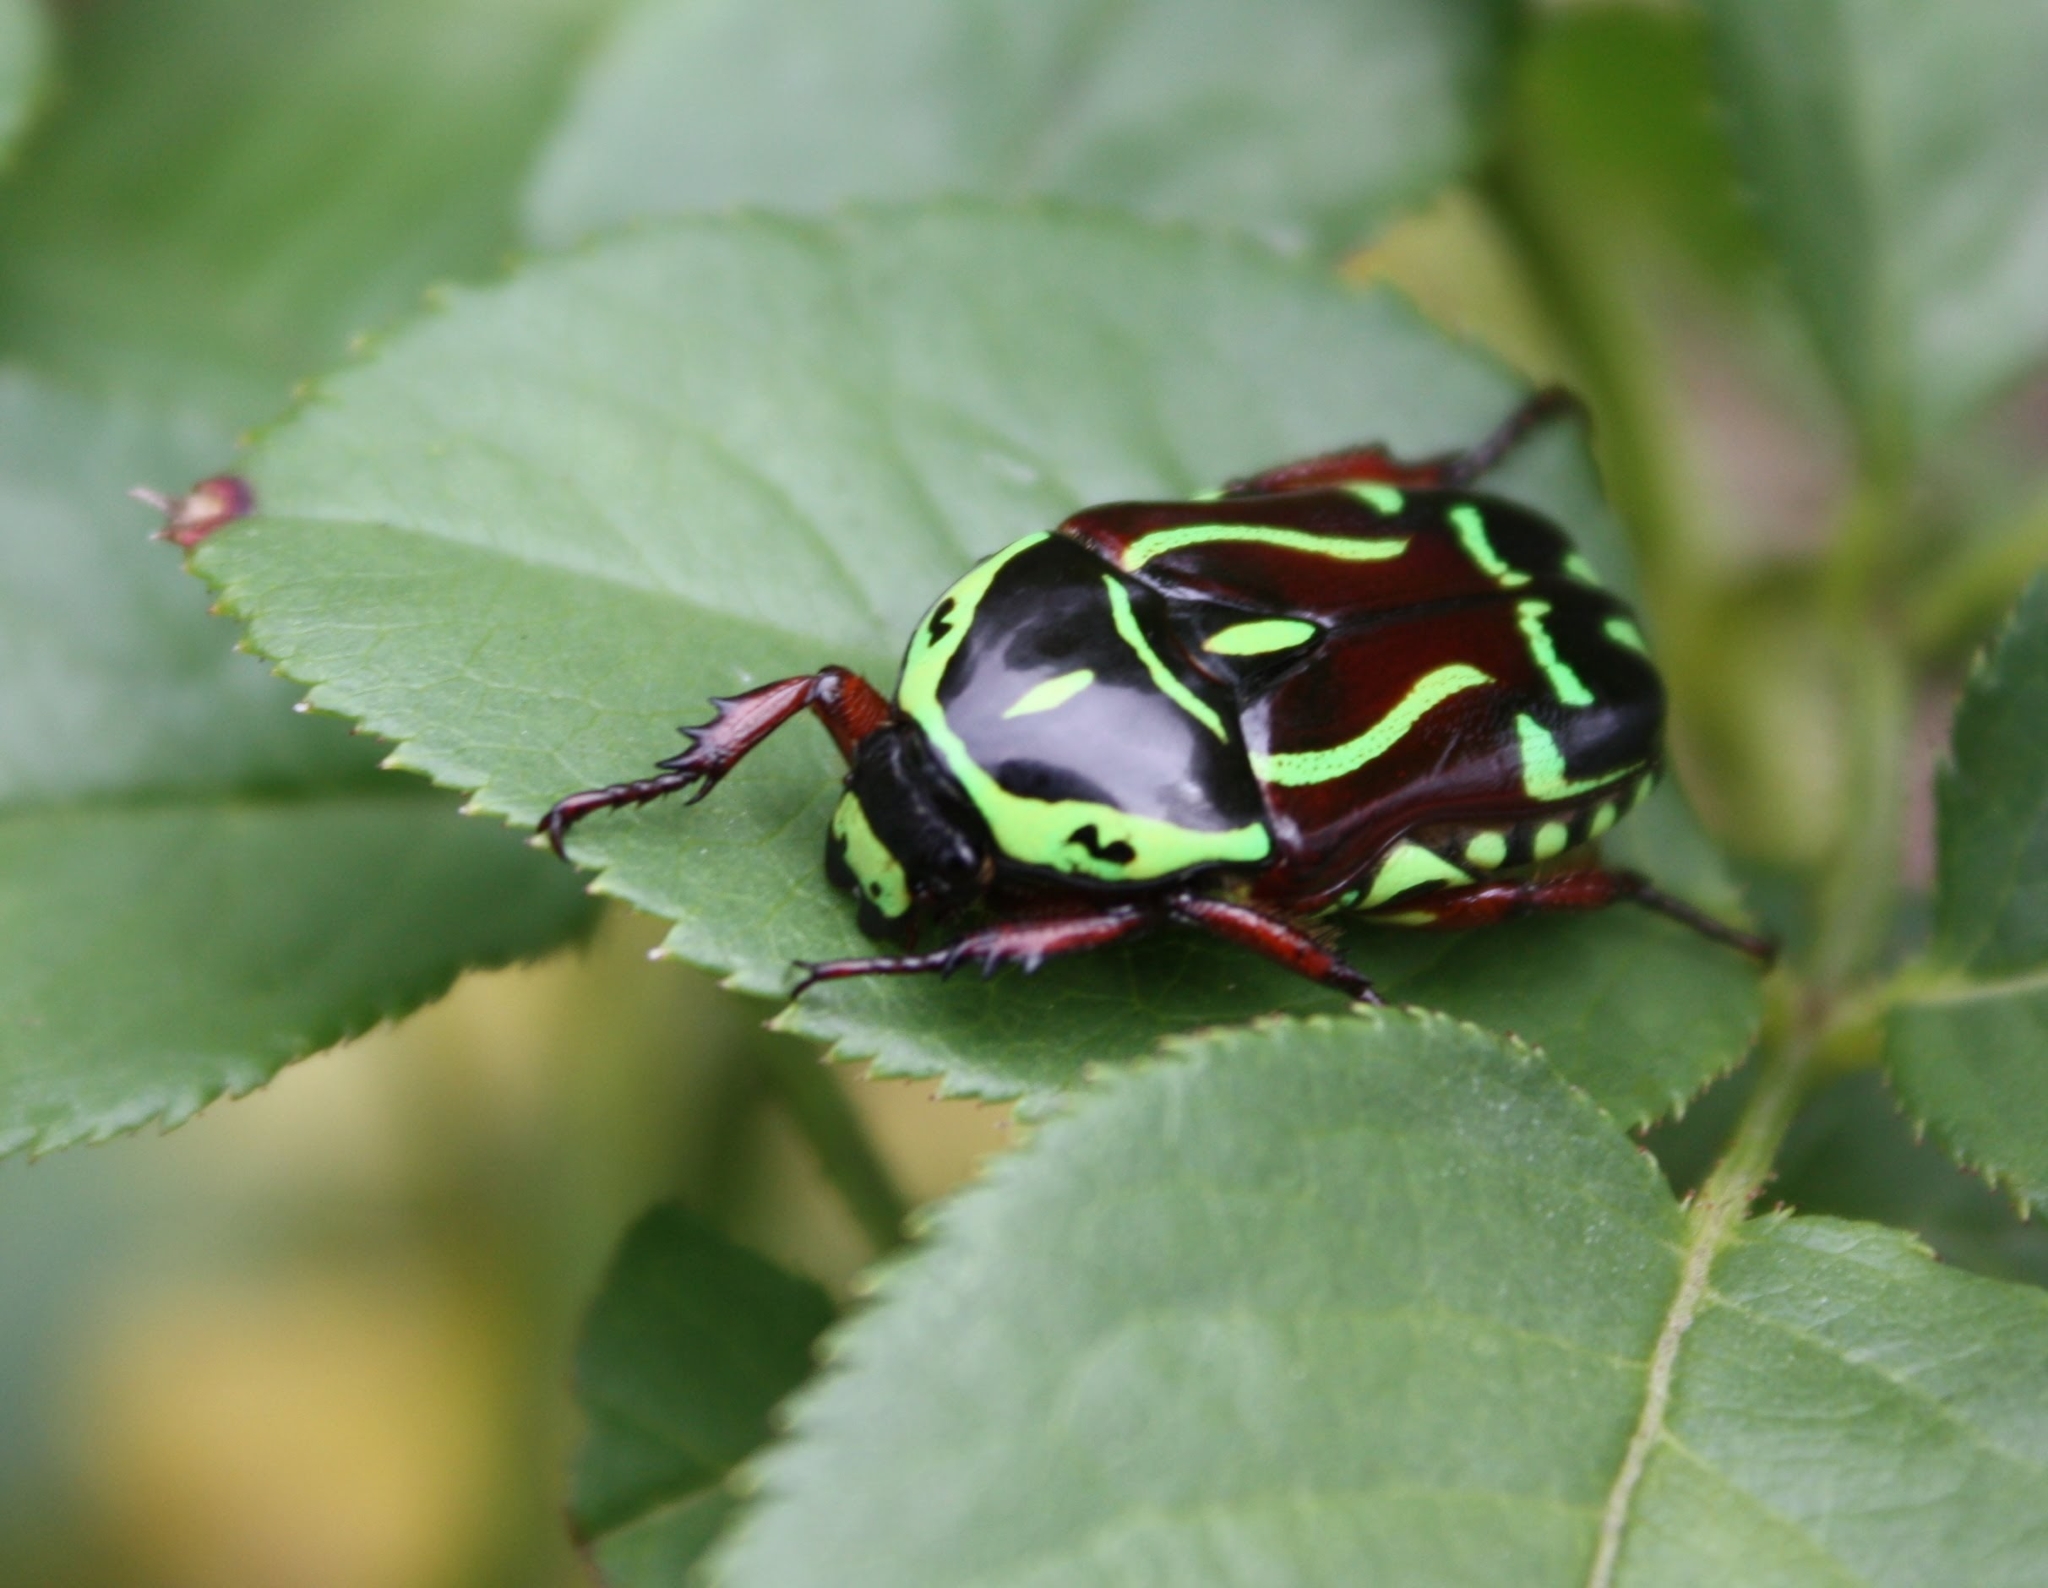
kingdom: Animalia
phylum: Arthropoda
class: Insecta
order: Coleoptera
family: Scarabaeidae
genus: Eupoecila
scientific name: Eupoecila australasiae
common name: Fiddler beetle
